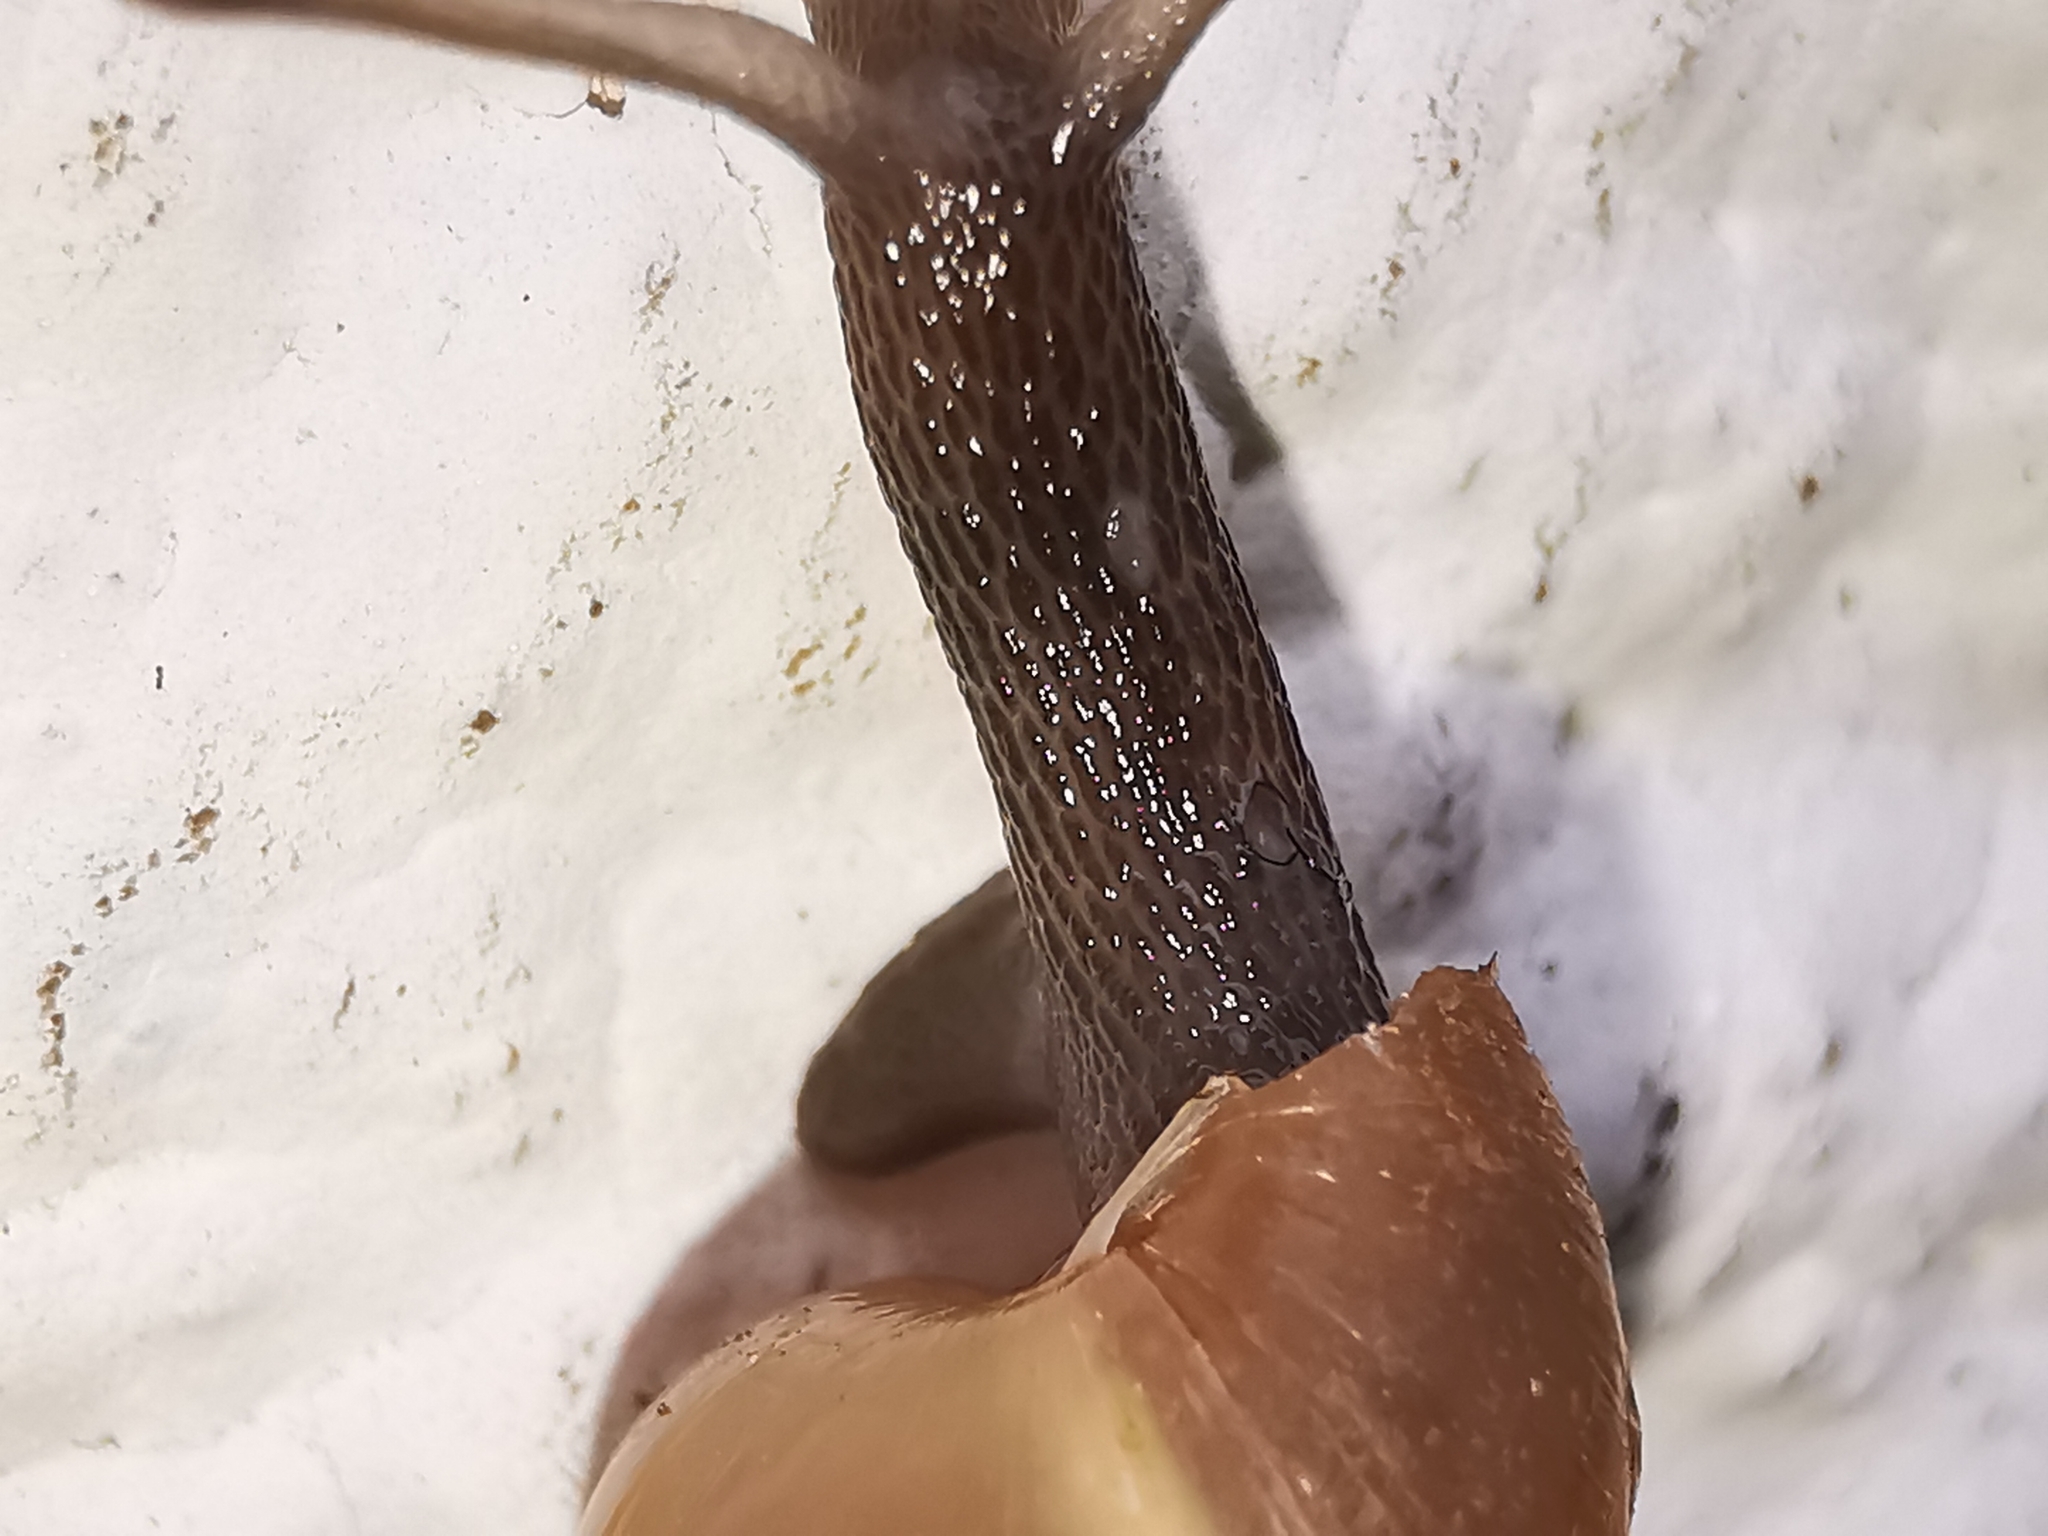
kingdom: Animalia
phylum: Mollusca
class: Gastropoda
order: Stylommatophora
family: Achatinidae
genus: Rumina
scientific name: Rumina decollata
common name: Decollate snail
